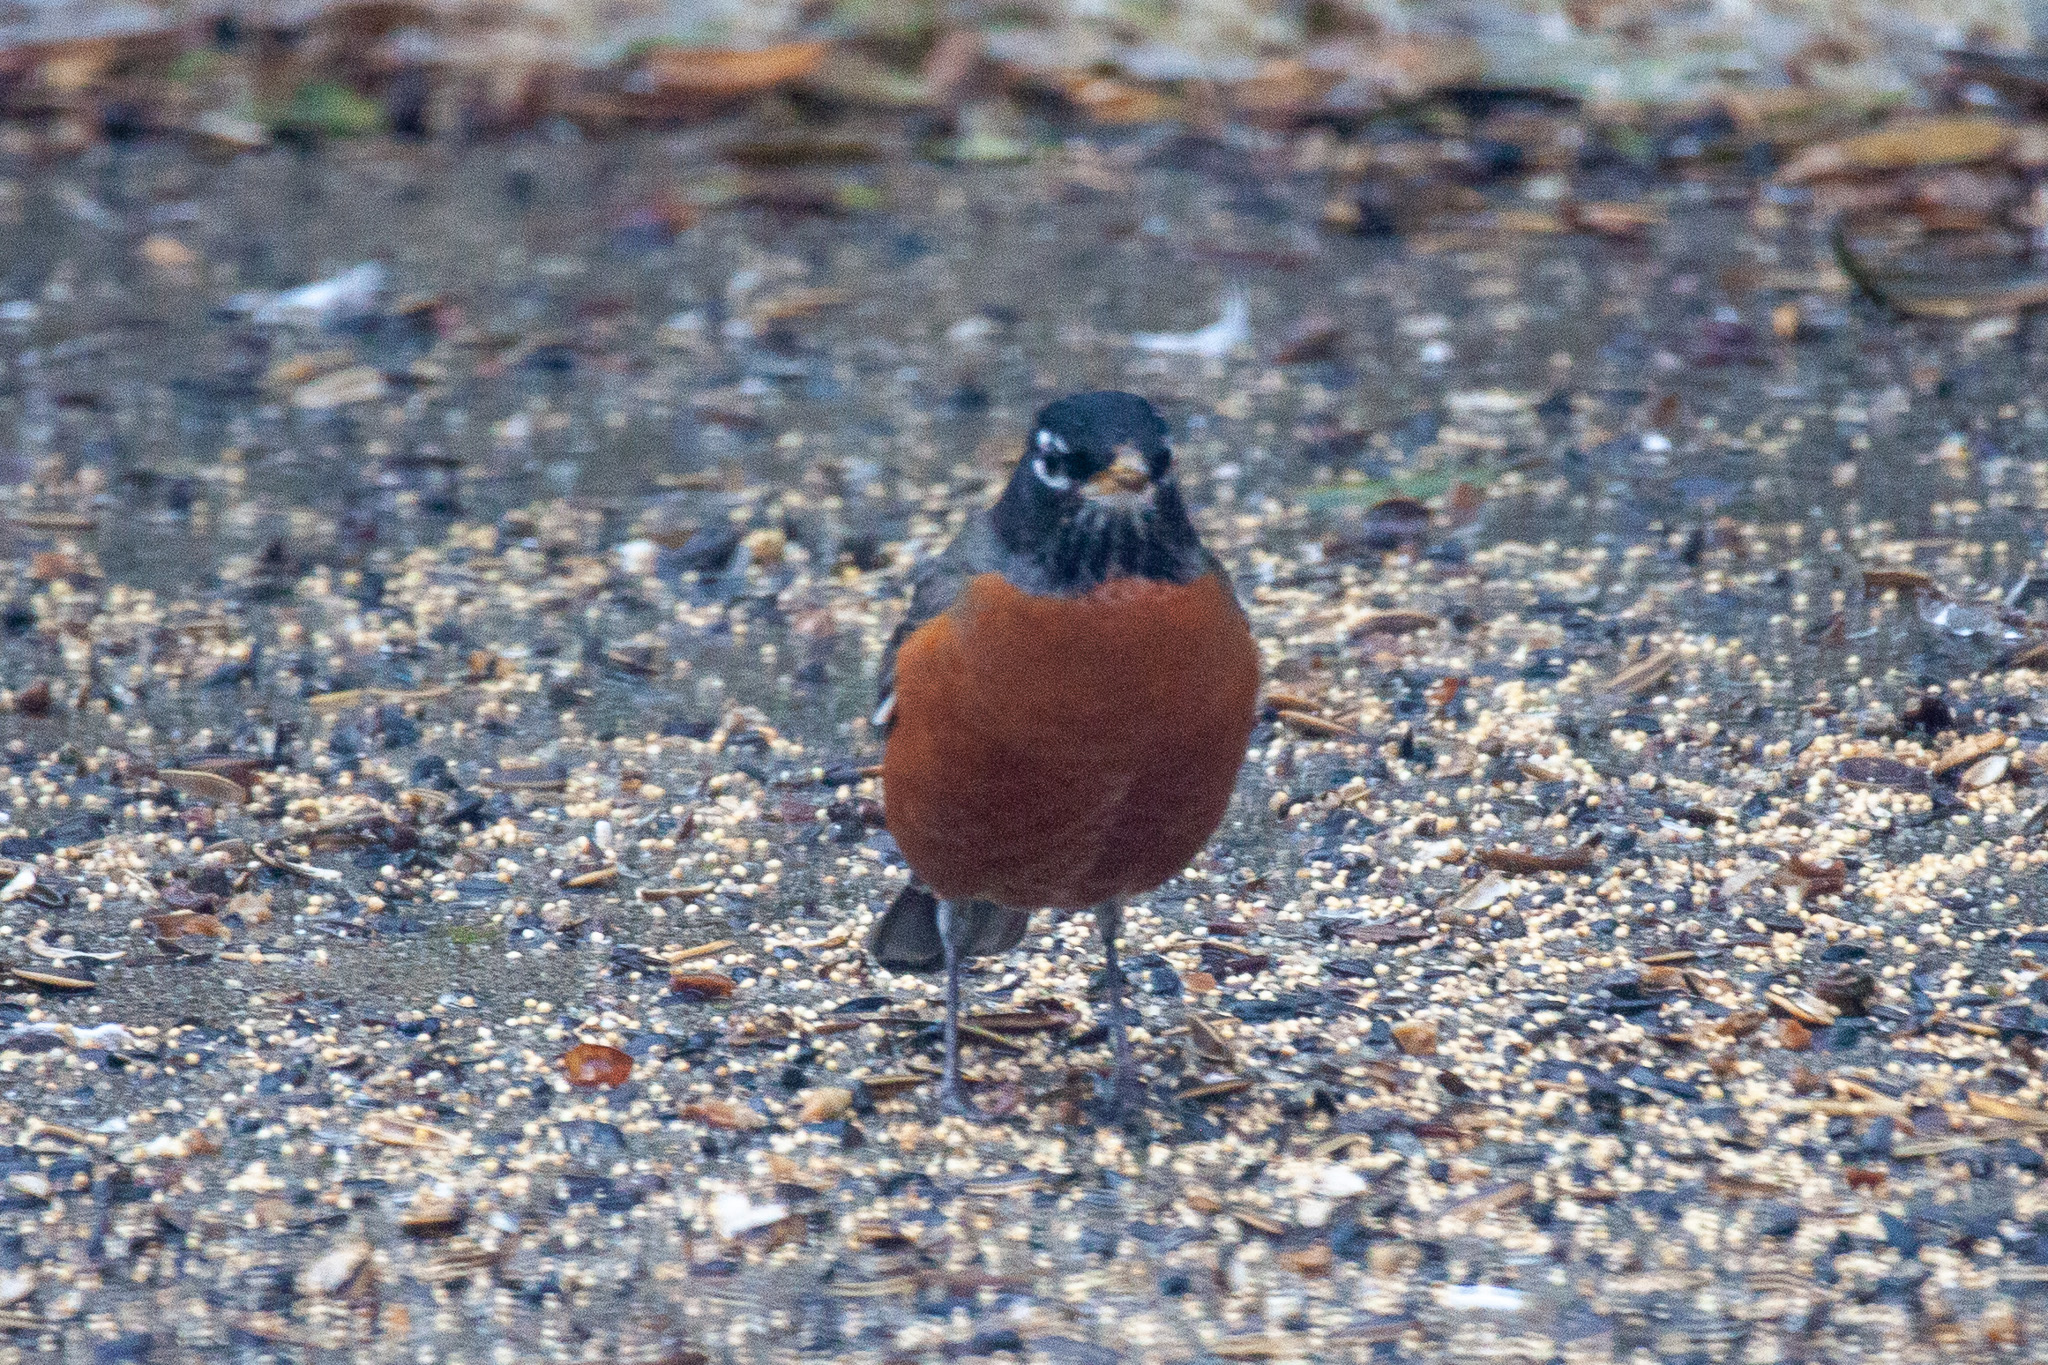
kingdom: Animalia
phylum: Chordata
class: Aves
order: Passeriformes
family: Turdidae
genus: Turdus
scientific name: Turdus migratorius
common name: American robin
